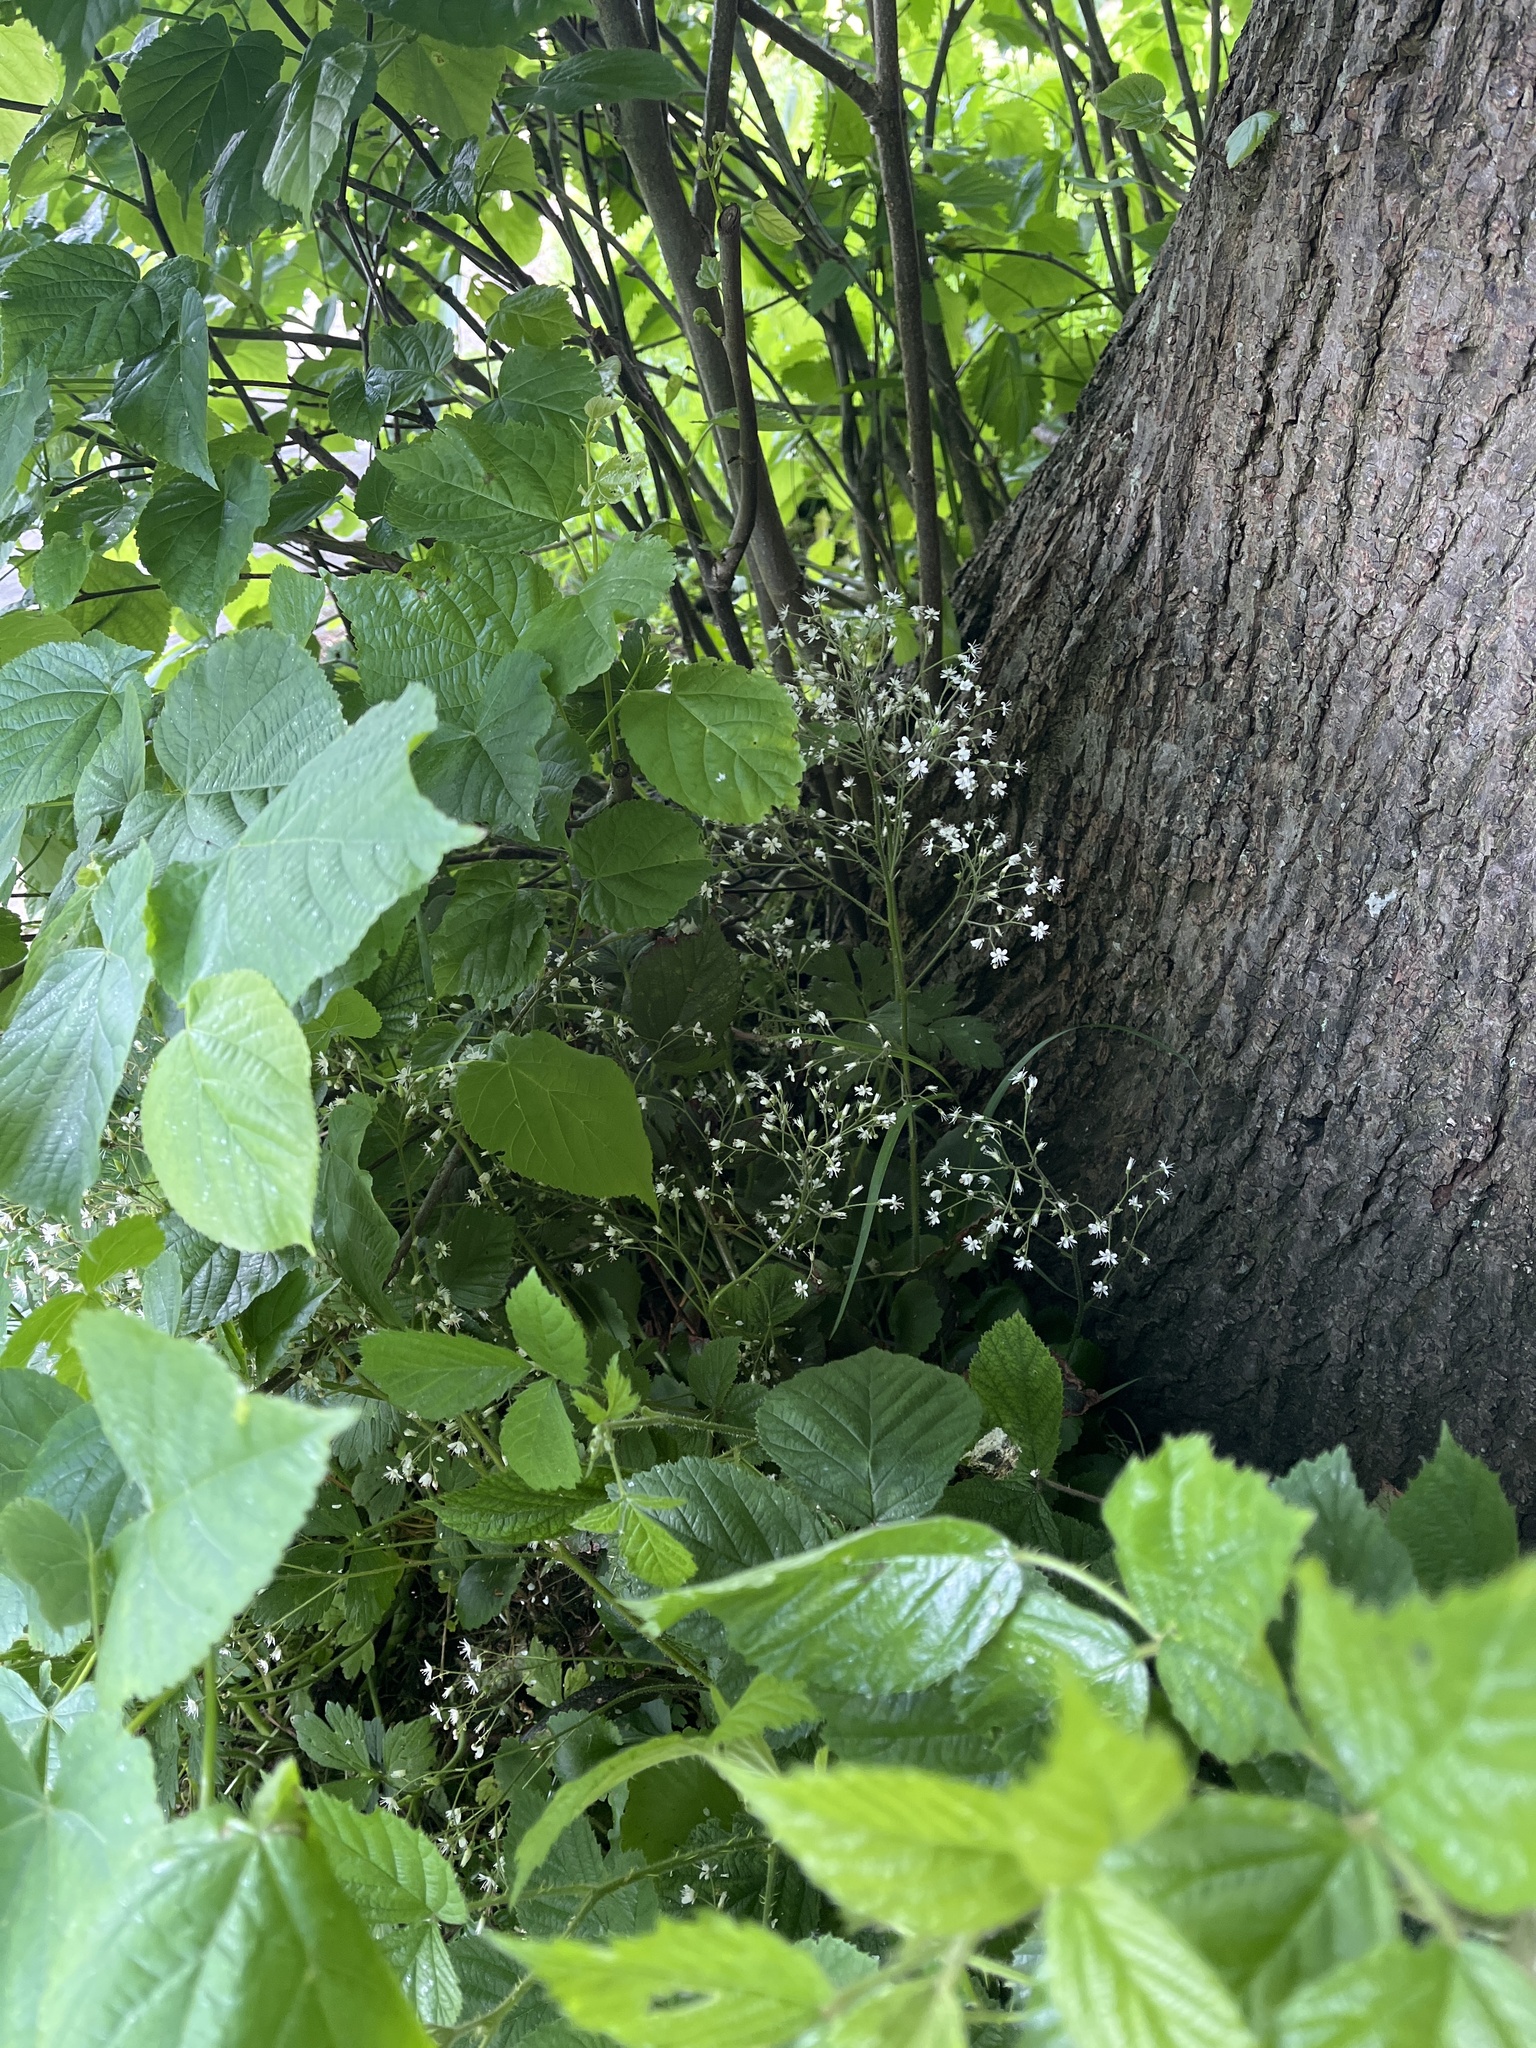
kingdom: Plantae
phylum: Tracheophyta
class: Magnoliopsida
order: Saxifragales
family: Saxifragaceae
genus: Saxifraga
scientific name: Saxifraga polita
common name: False londonpride
